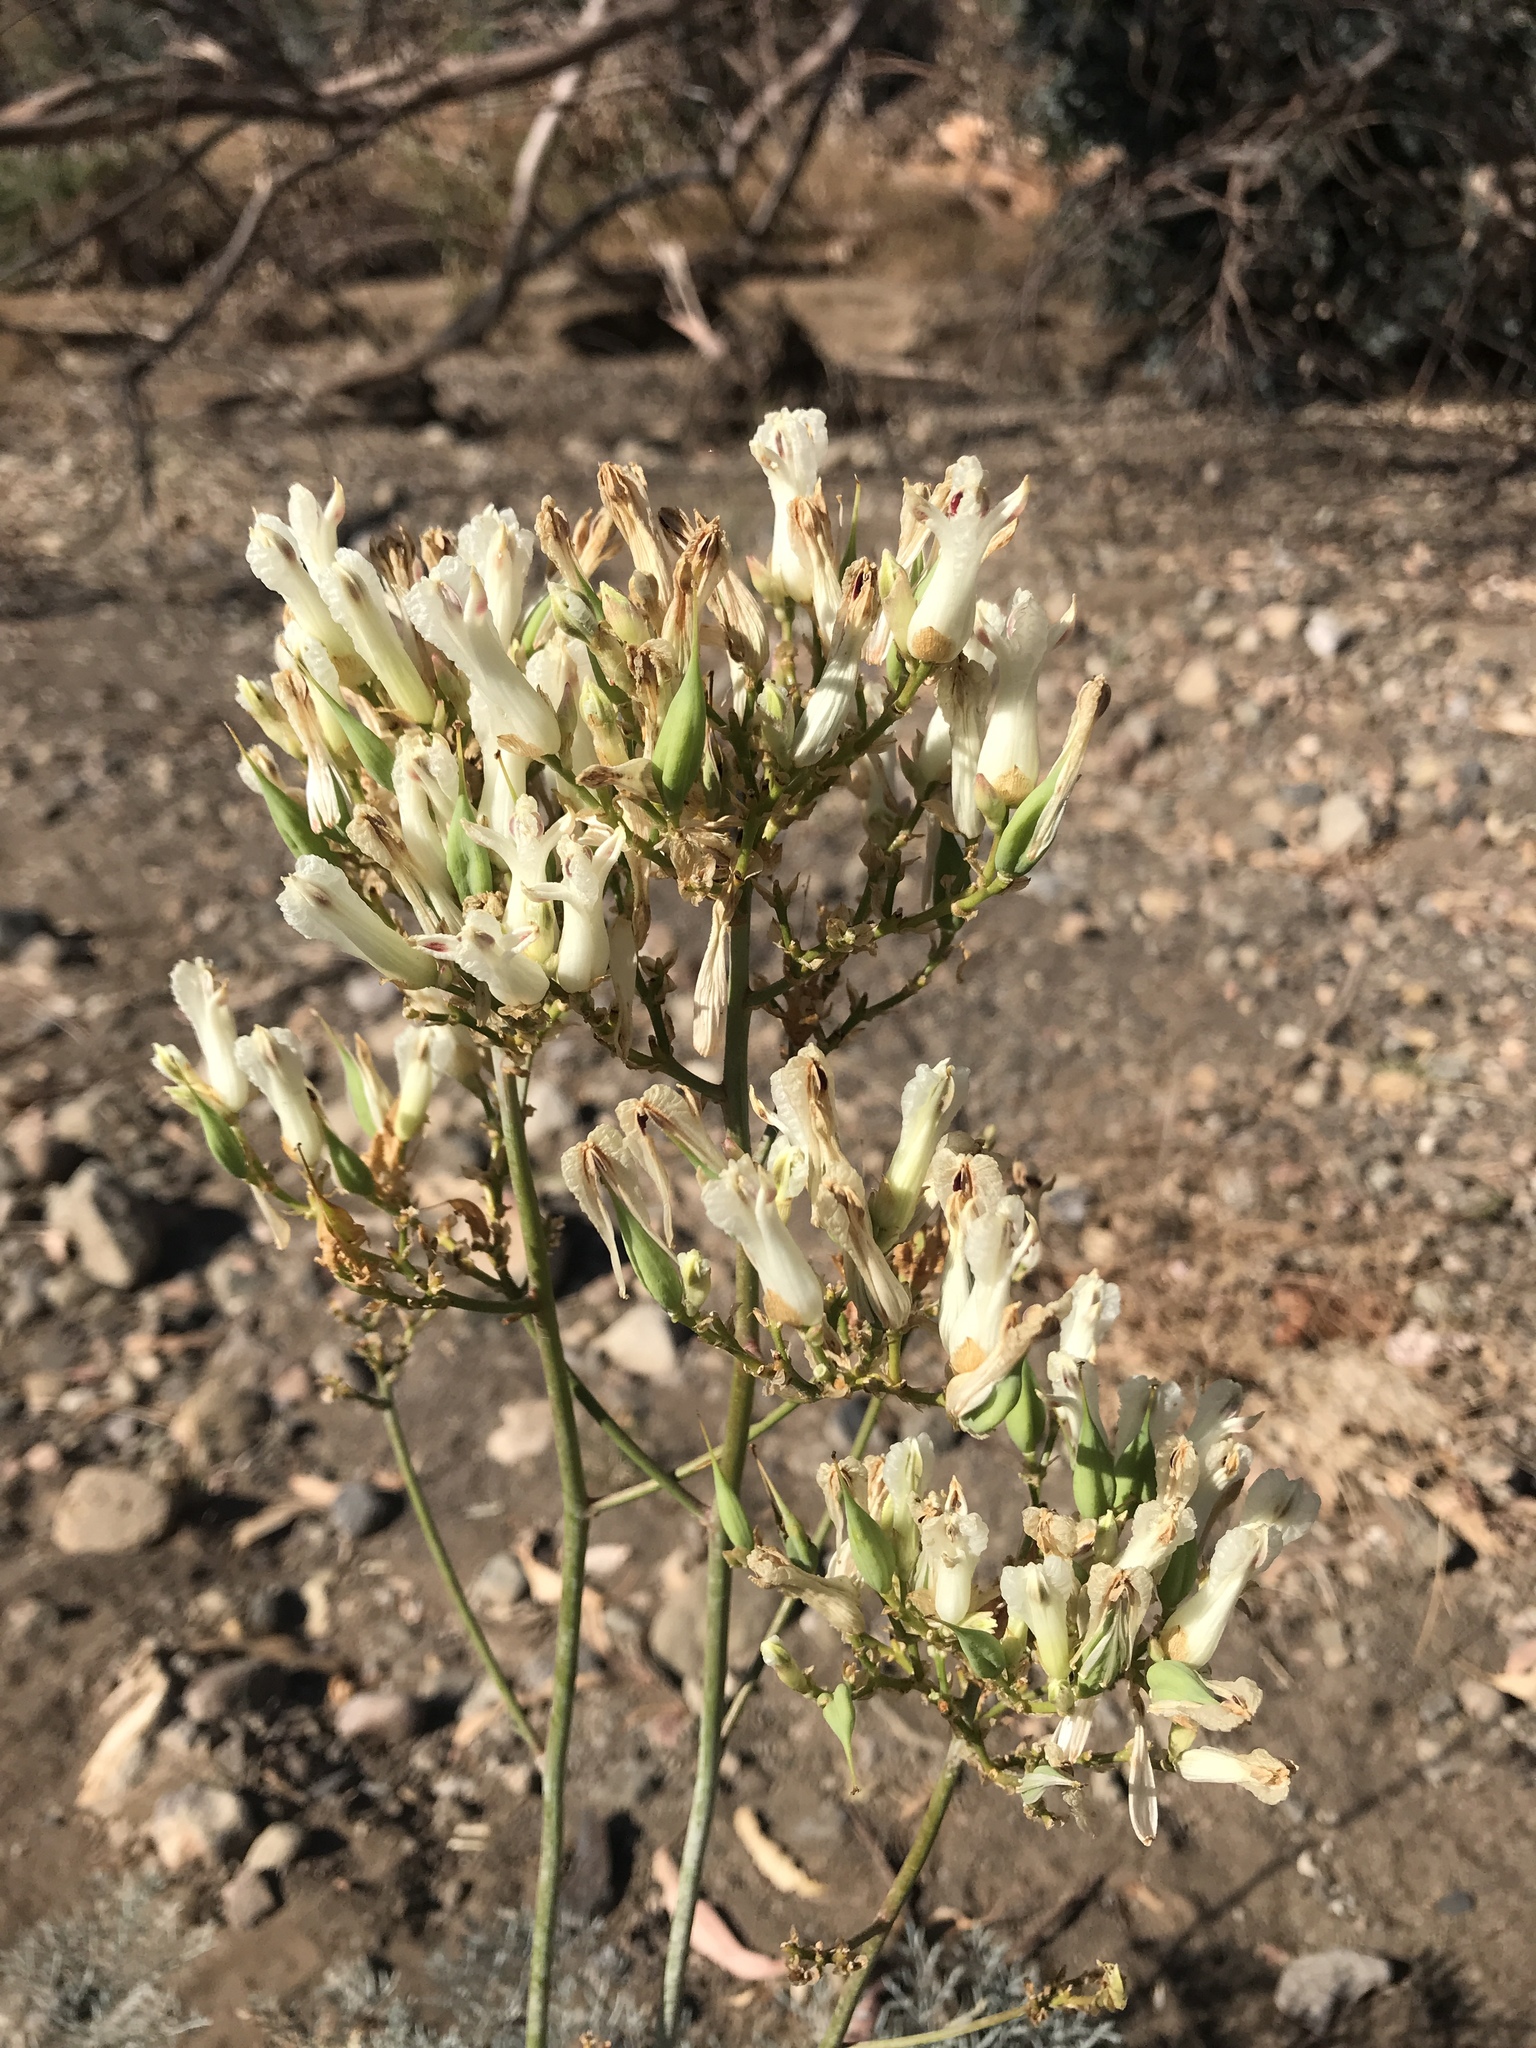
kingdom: Plantae
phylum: Tracheophyta
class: Magnoliopsida
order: Ranunculales
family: Papaveraceae
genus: Ehrendorferia
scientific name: Ehrendorferia ochroleuca
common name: White eardrops
